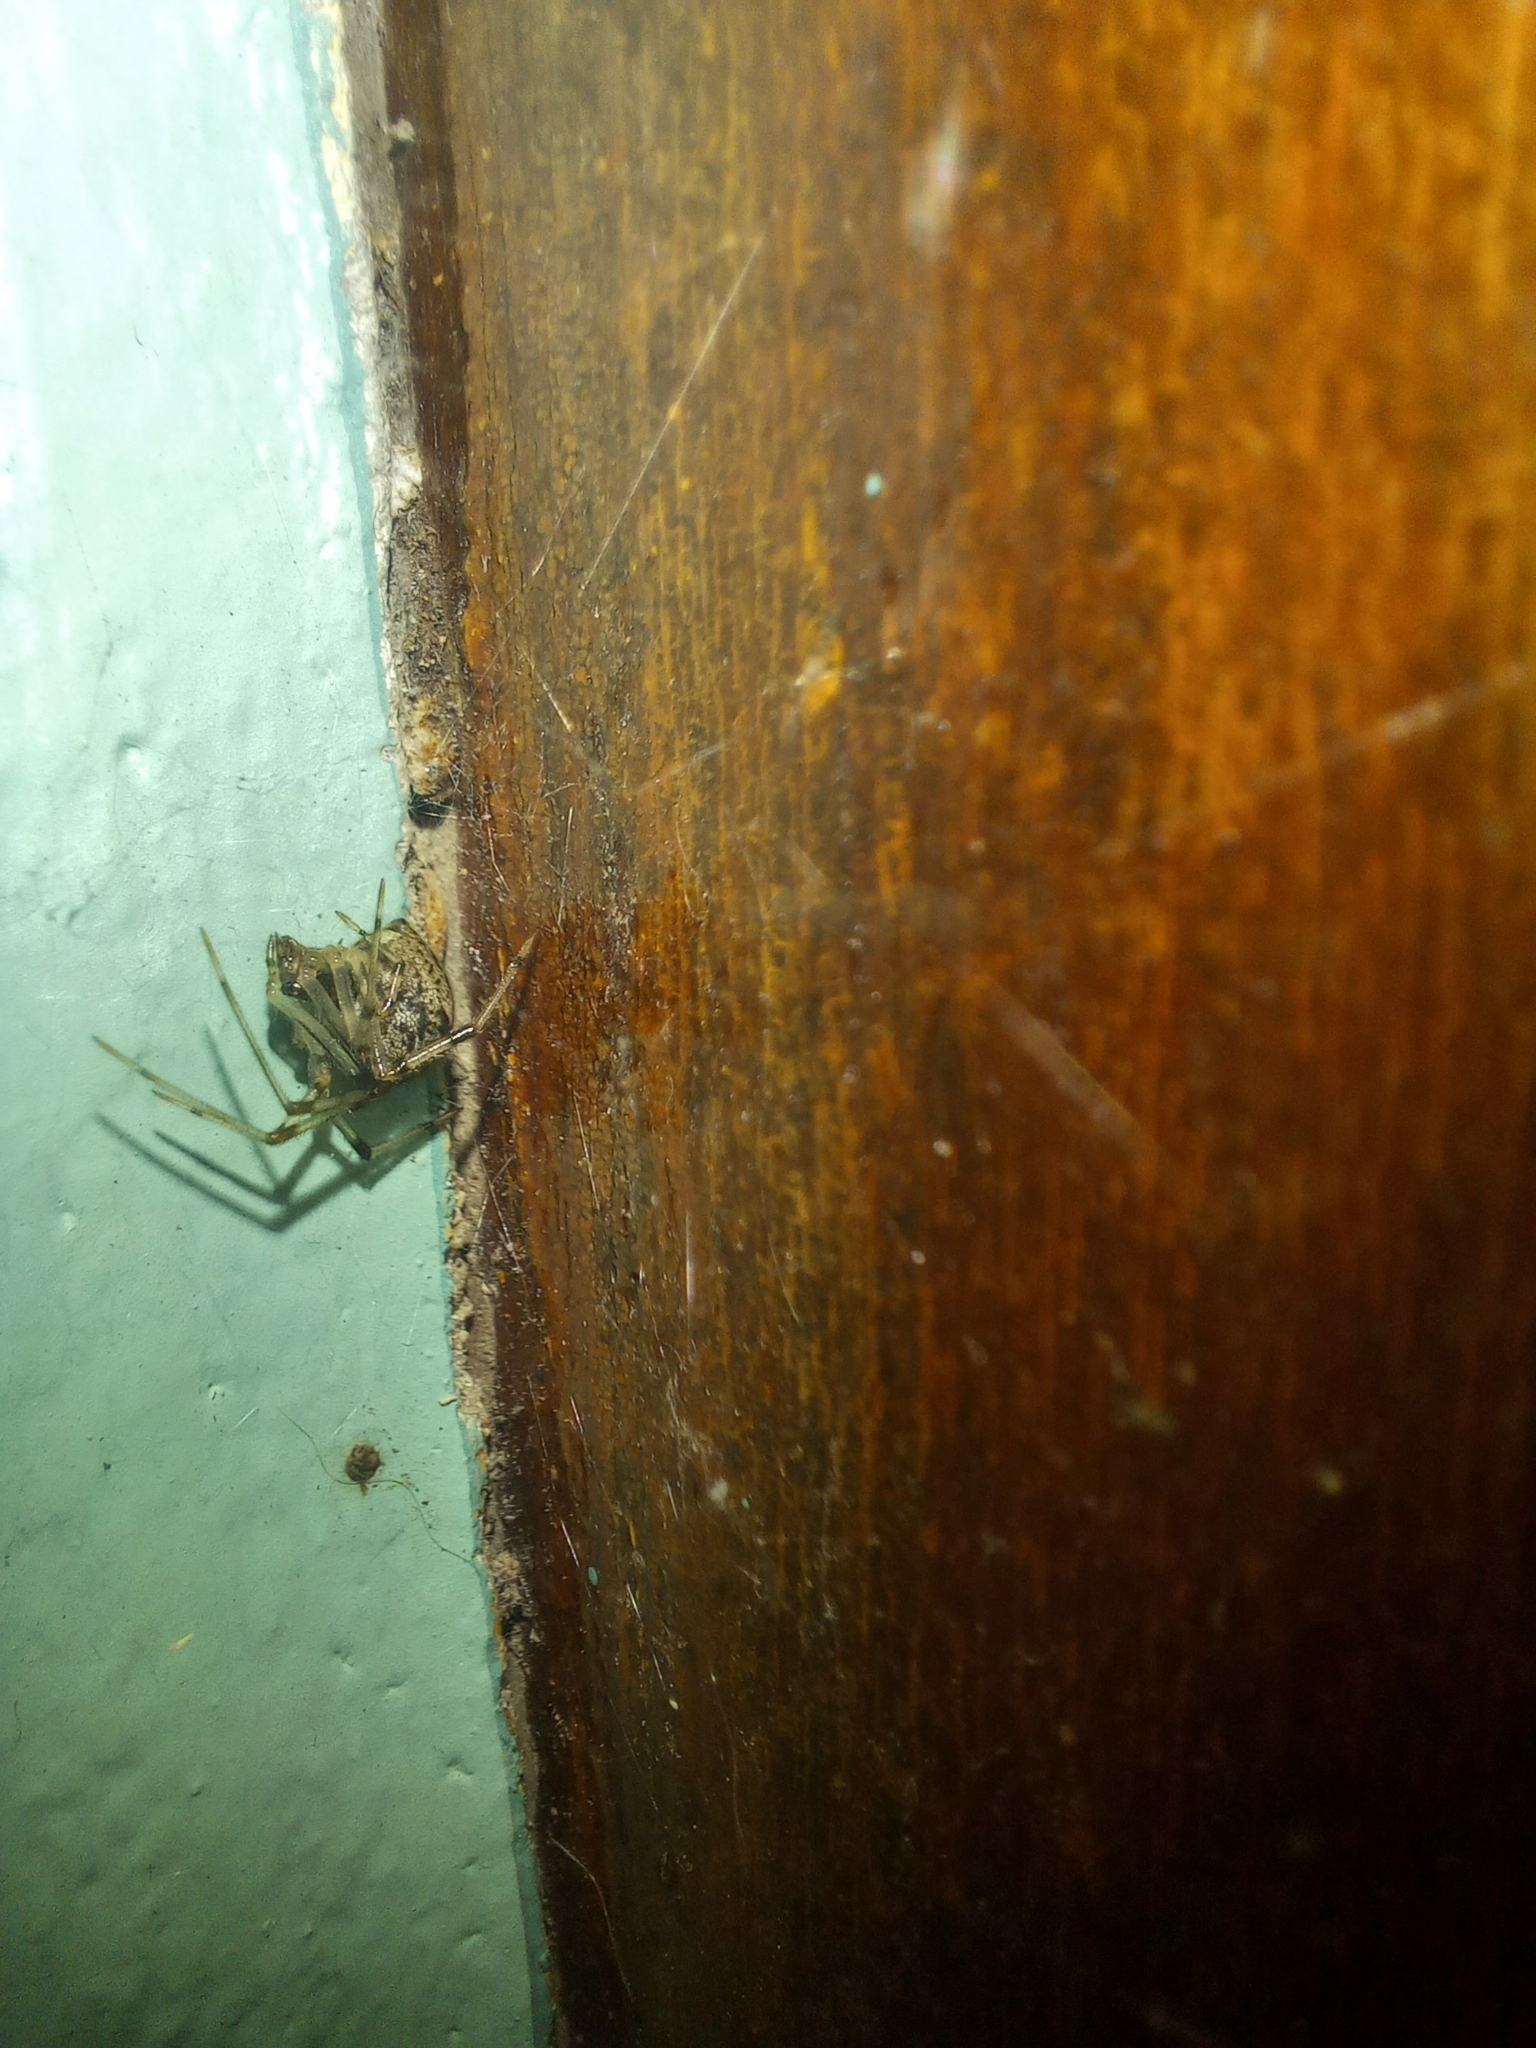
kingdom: Animalia
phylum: Arthropoda
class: Arachnida
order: Araneae
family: Theridiidae
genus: Parasteatoda
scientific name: Parasteatoda tepidariorum
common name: Common house spider
